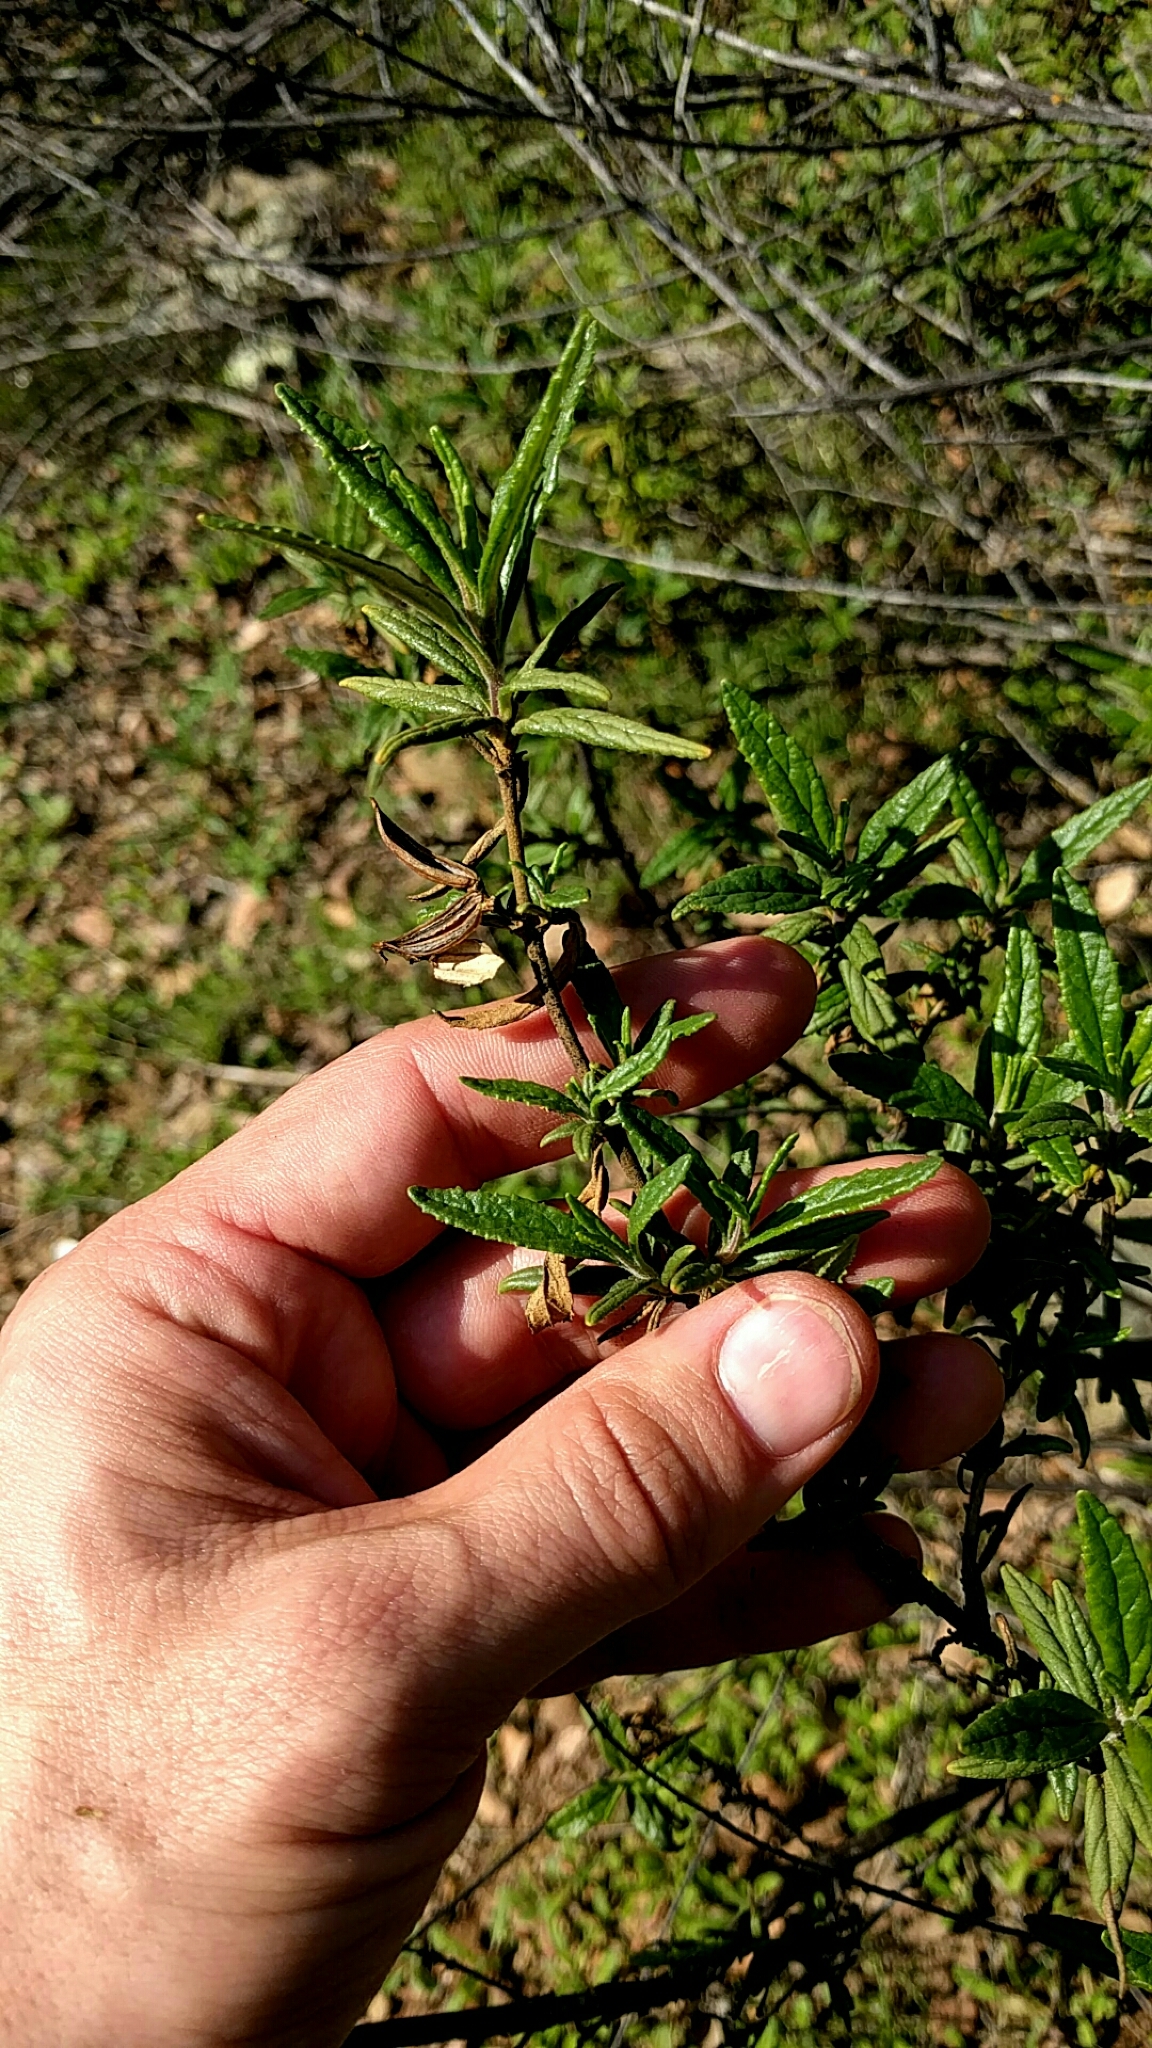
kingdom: Plantae
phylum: Tracheophyta
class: Magnoliopsida
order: Lamiales
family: Phrymaceae
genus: Diplacus
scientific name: Diplacus aurantiacus
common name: Bush monkey-flower
